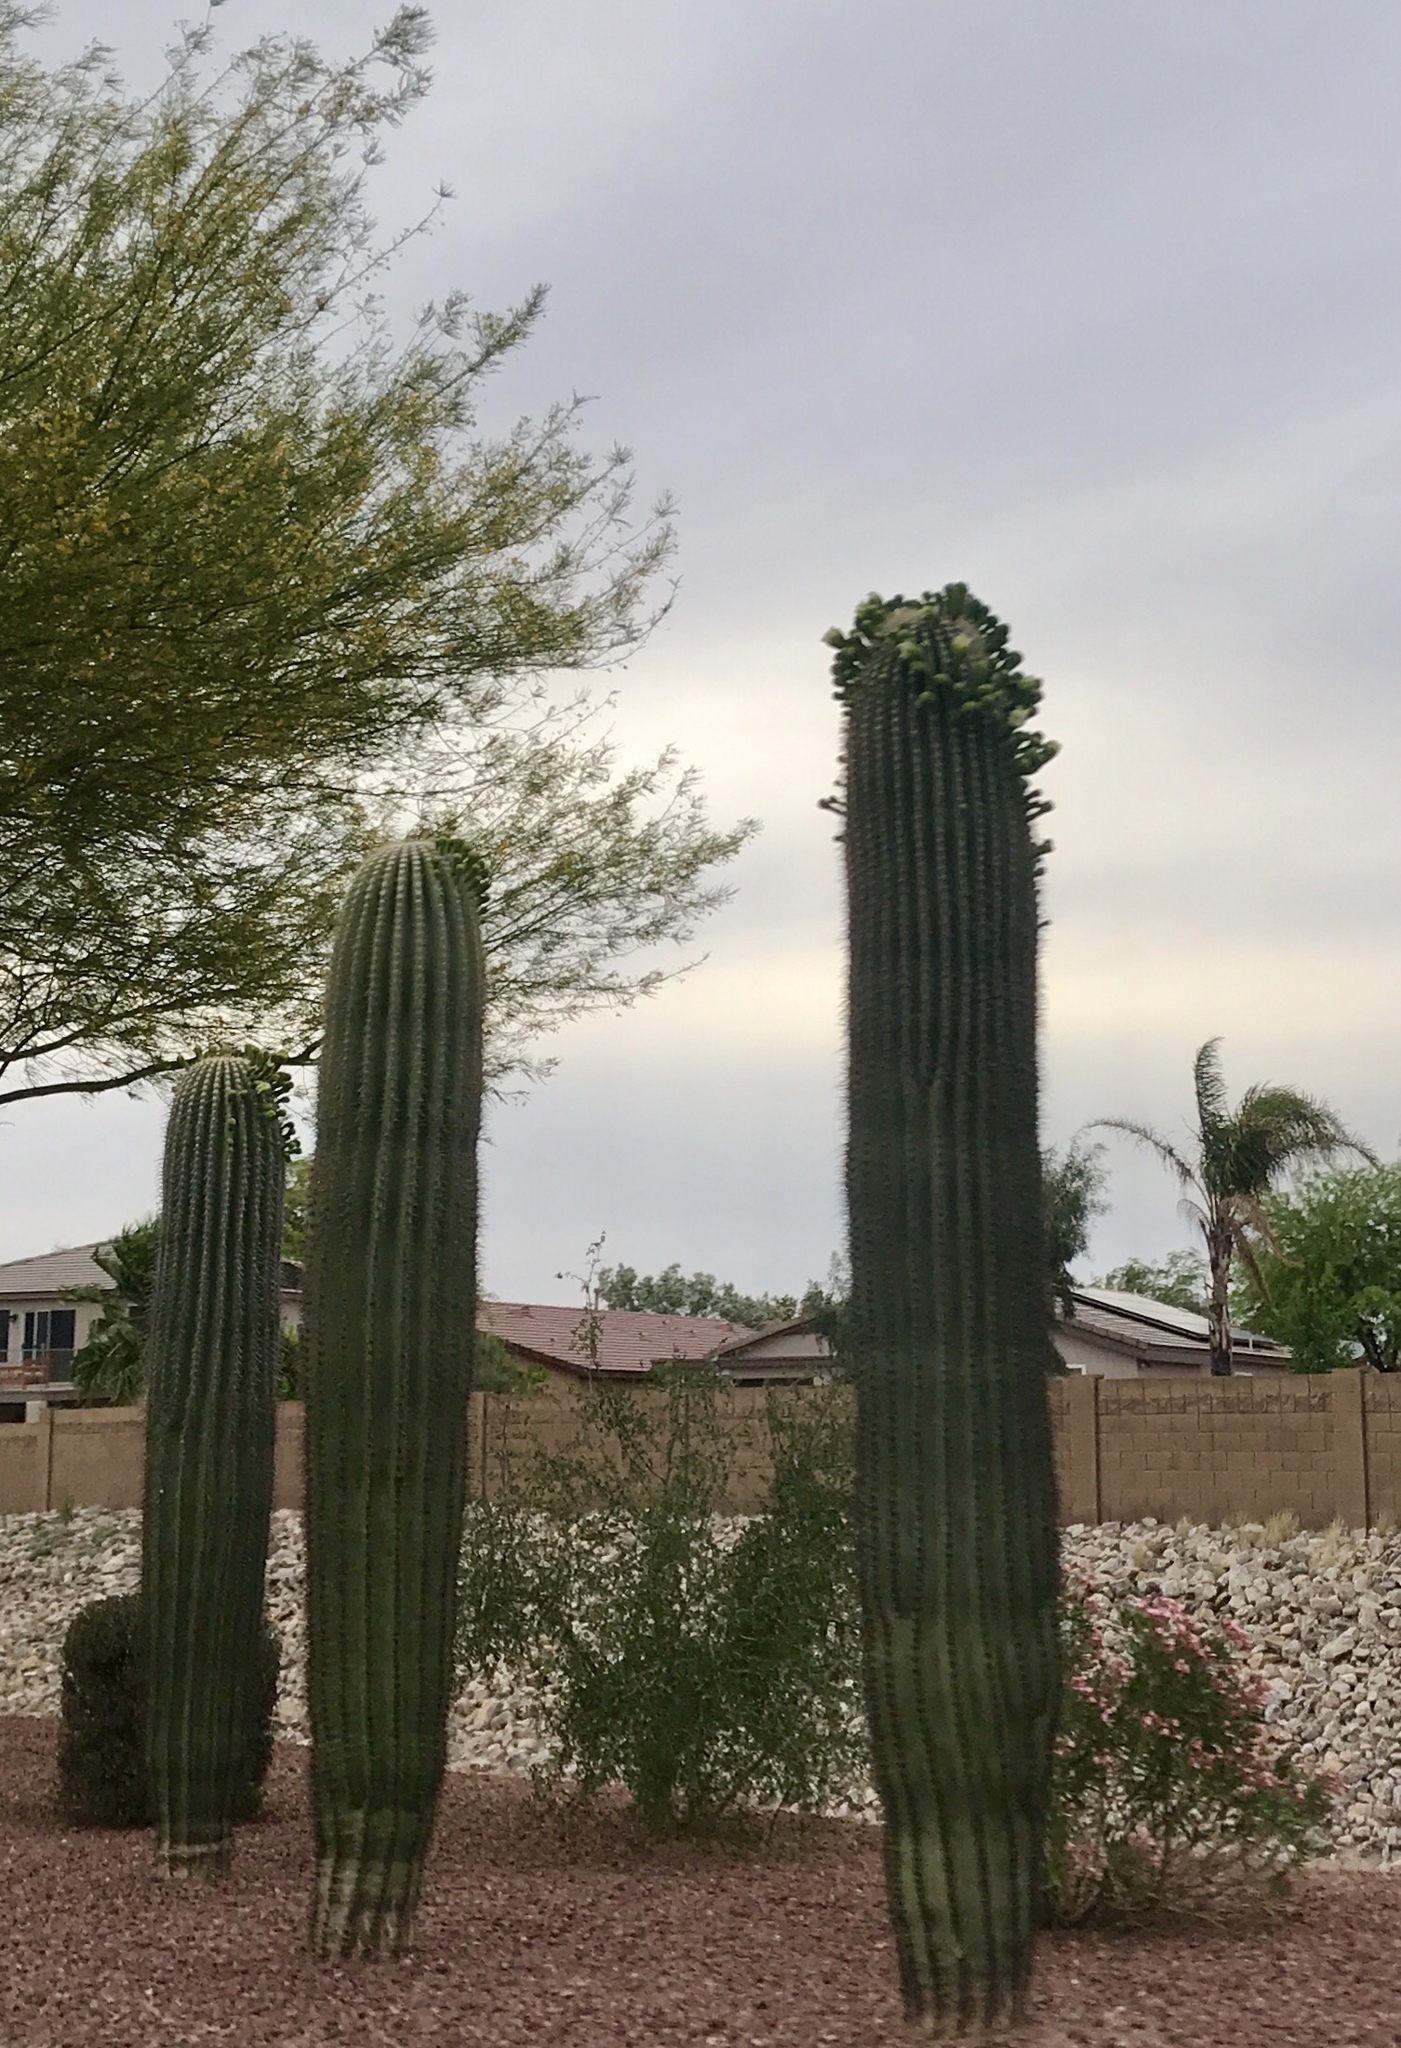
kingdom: Plantae
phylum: Tracheophyta
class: Magnoliopsida
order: Caryophyllales
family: Cactaceae
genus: Carnegiea
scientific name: Carnegiea gigantea
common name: Saguaro
